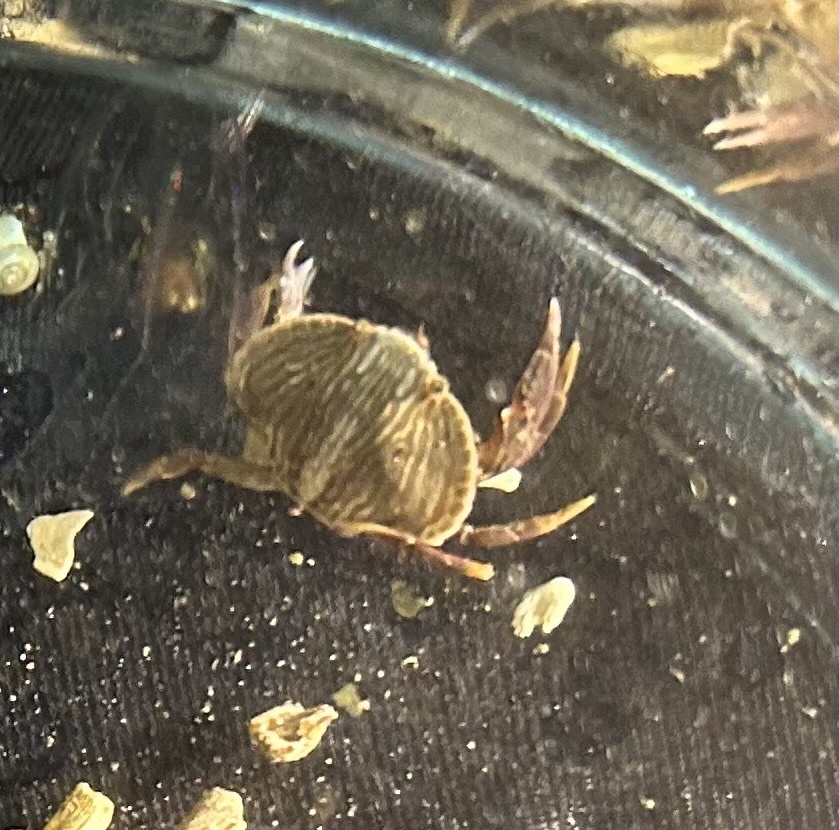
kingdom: Animalia
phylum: Arthropoda
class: Malacostraca
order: Decapoda
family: Cancridae
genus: Cancer
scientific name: Cancer productus
